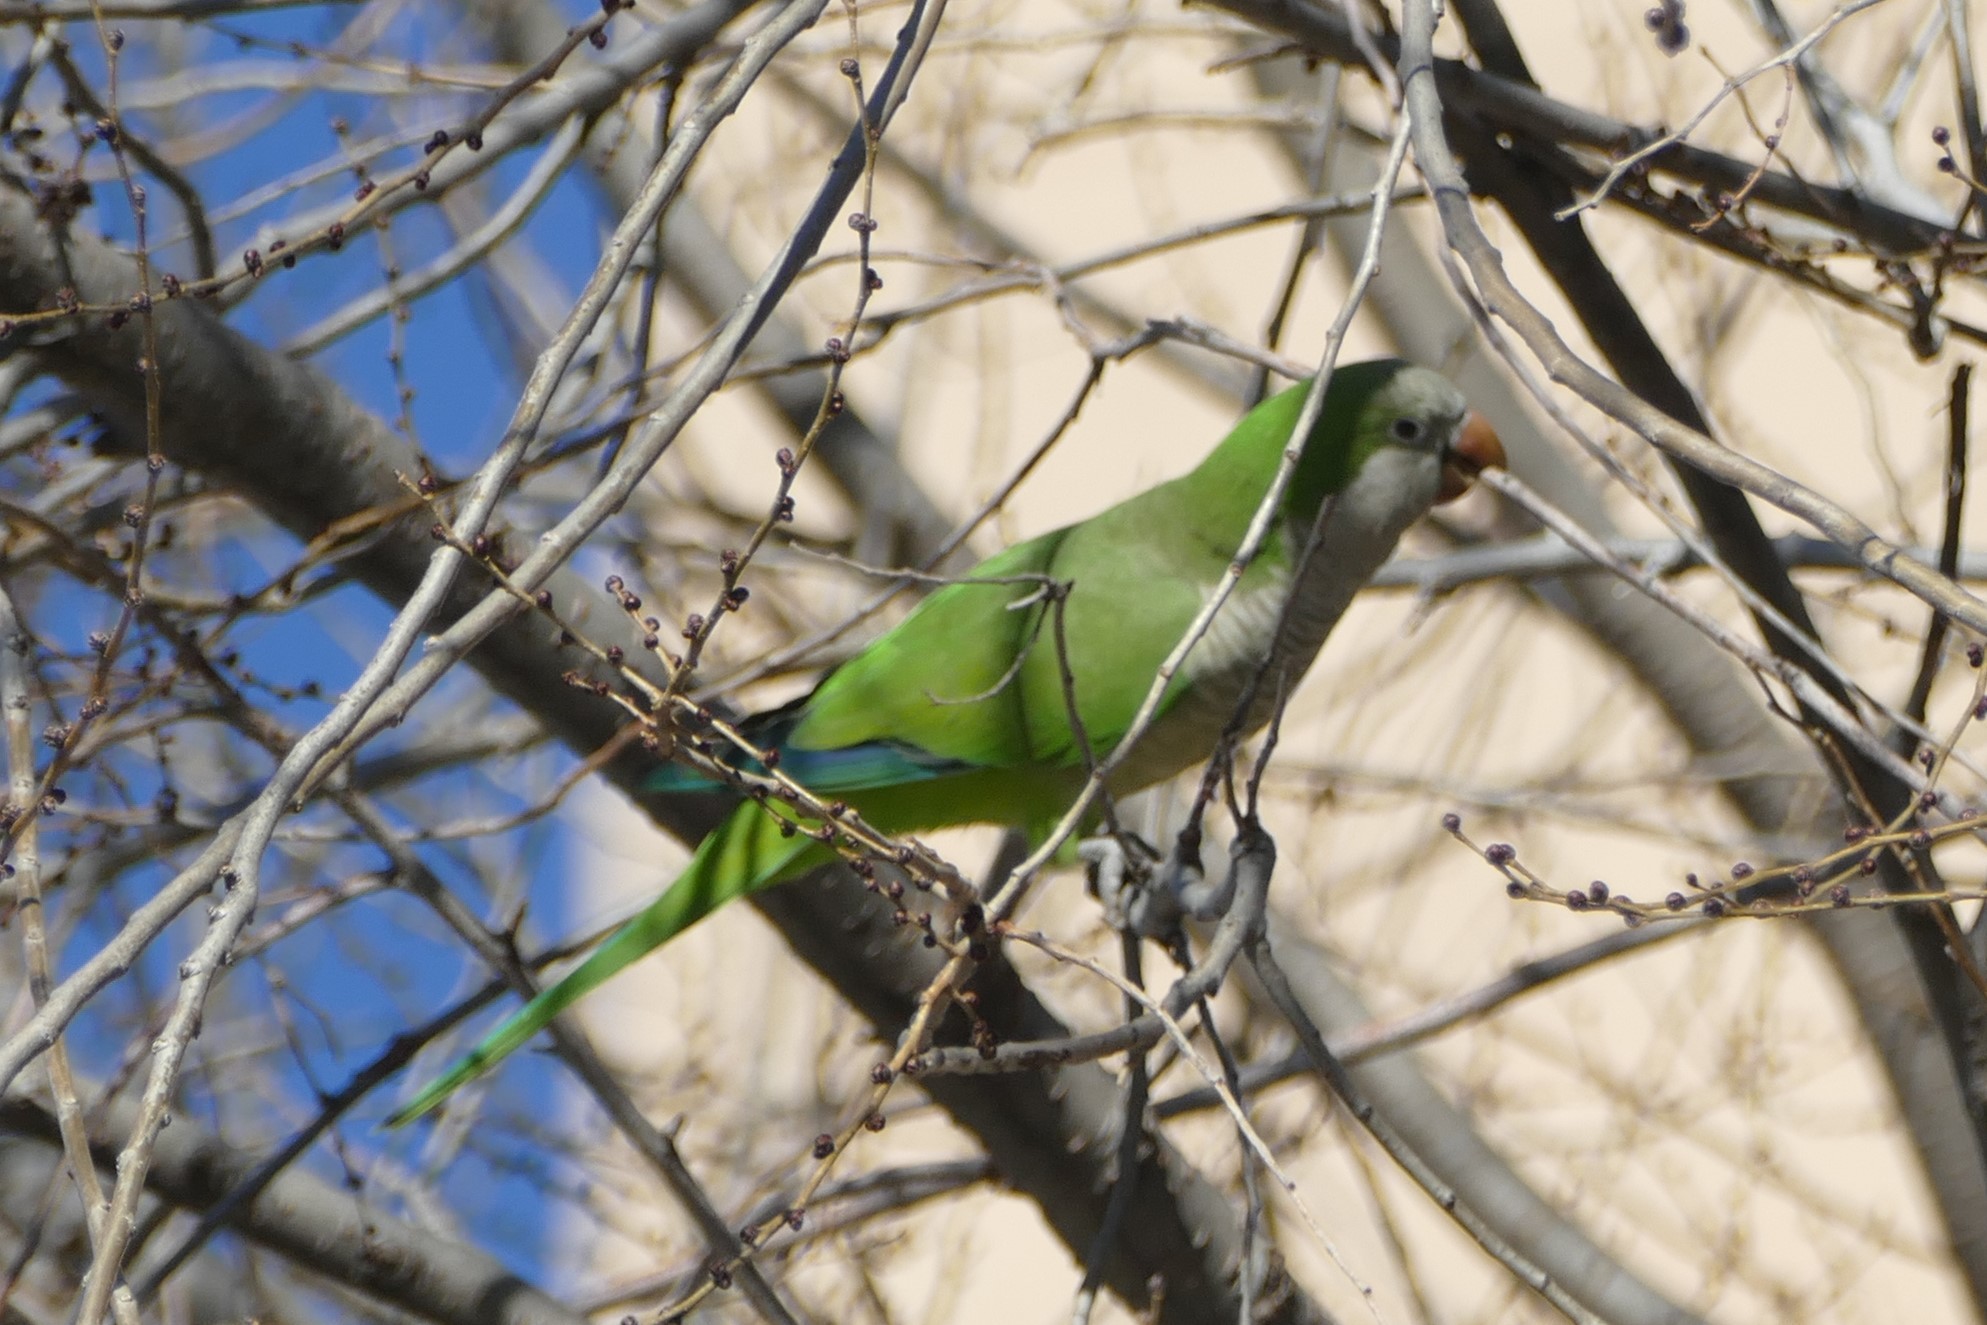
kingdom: Animalia
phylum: Chordata
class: Aves
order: Psittaciformes
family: Psittacidae
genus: Myiopsitta
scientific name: Myiopsitta monachus
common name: Monk parakeet
